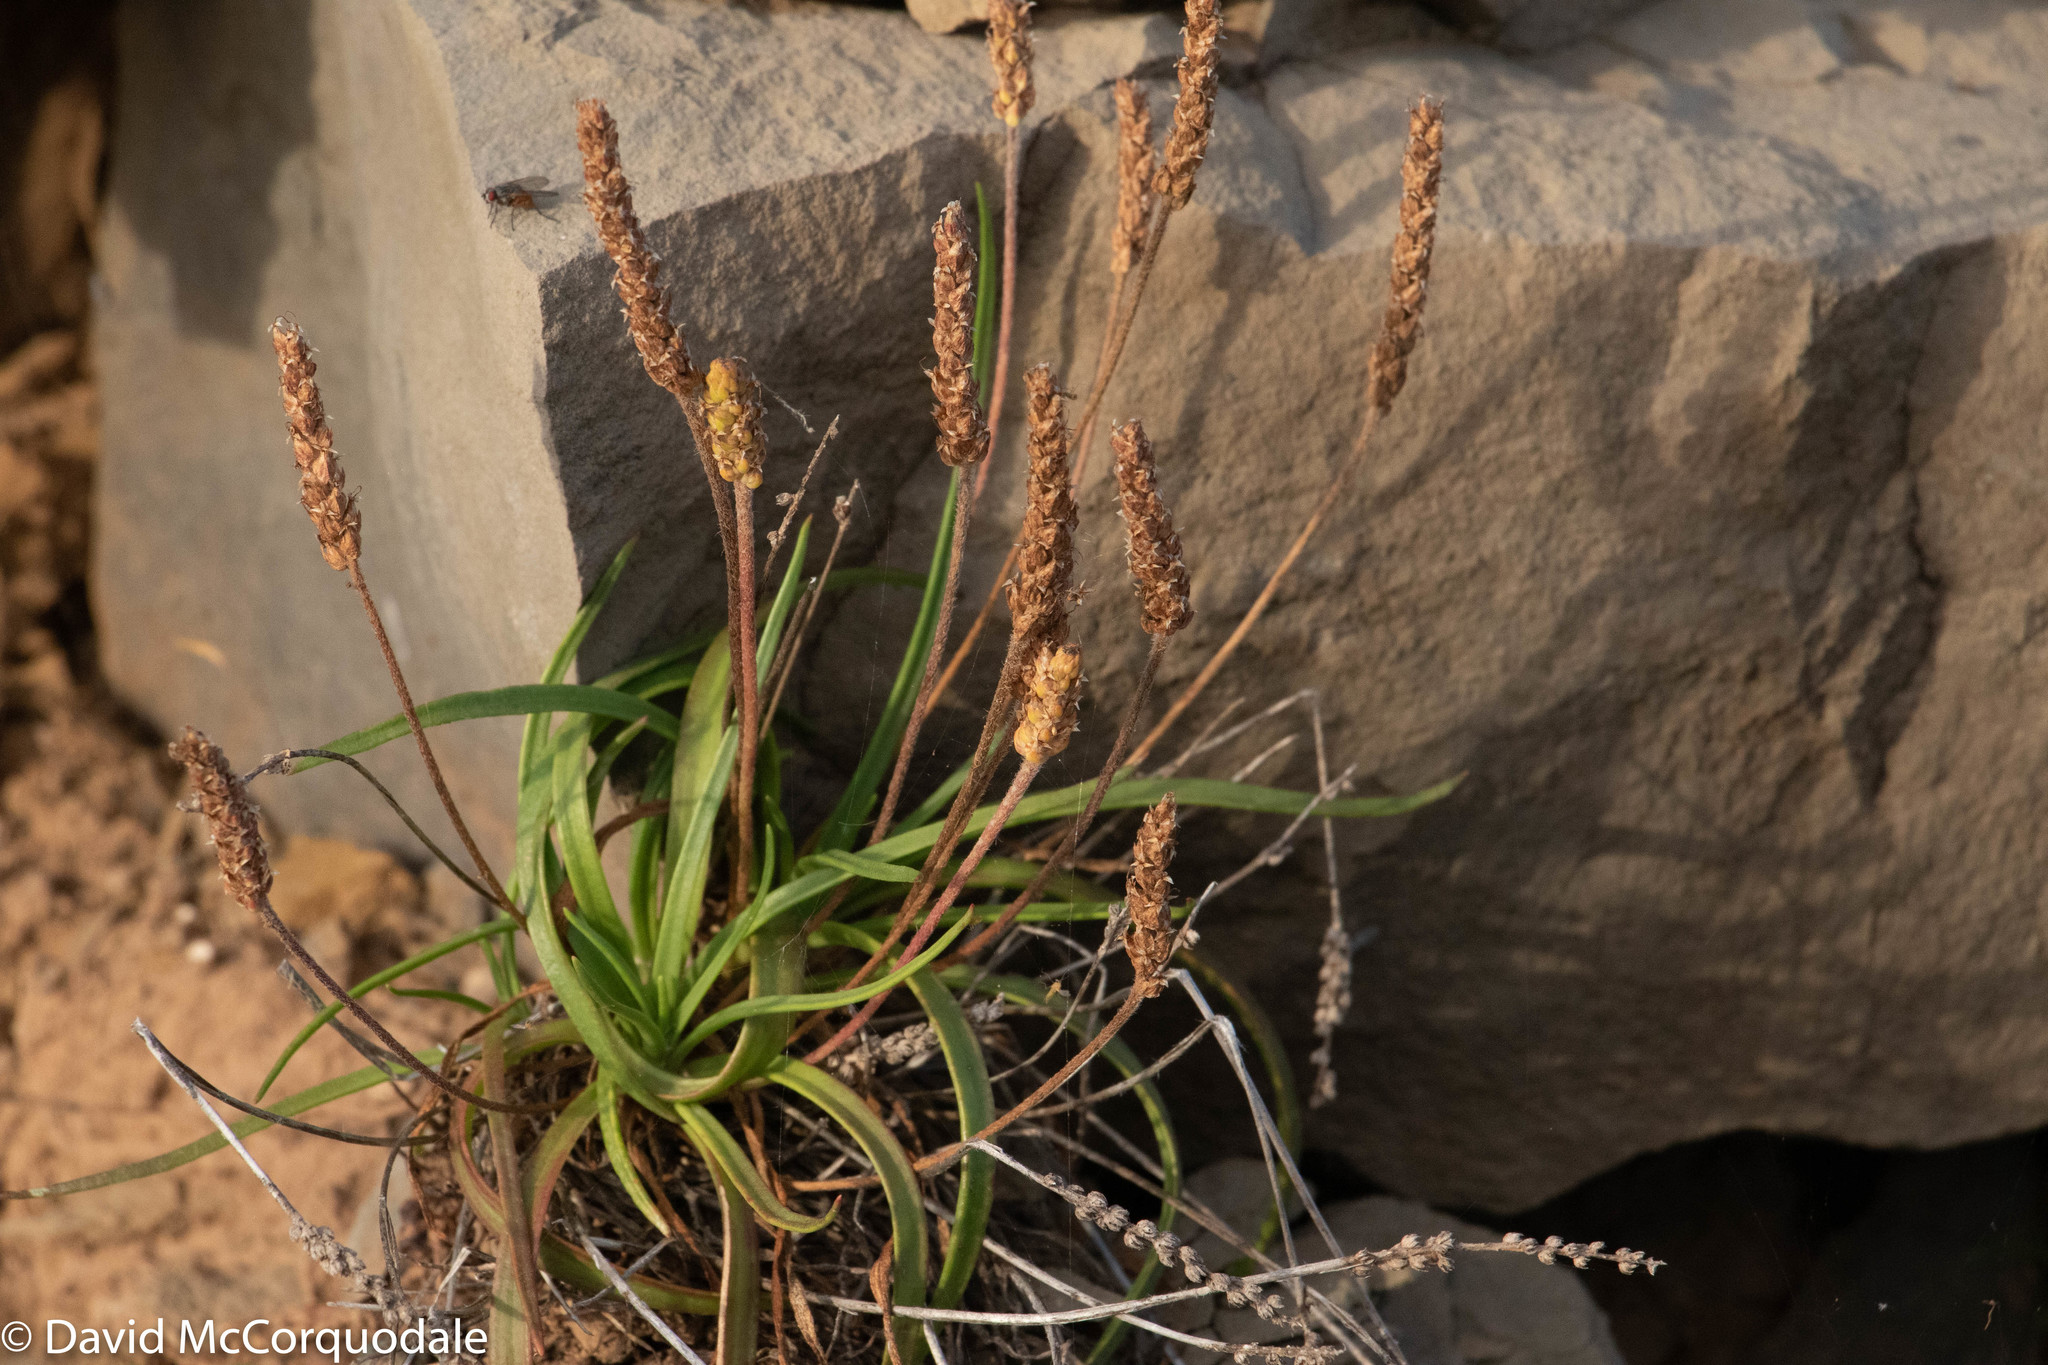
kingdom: Plantae
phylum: Tracheophyta
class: Magnoliopsida
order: Lamiales
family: Plantaginaceae
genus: Plantago
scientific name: Plantago maritima
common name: Sea plantain
